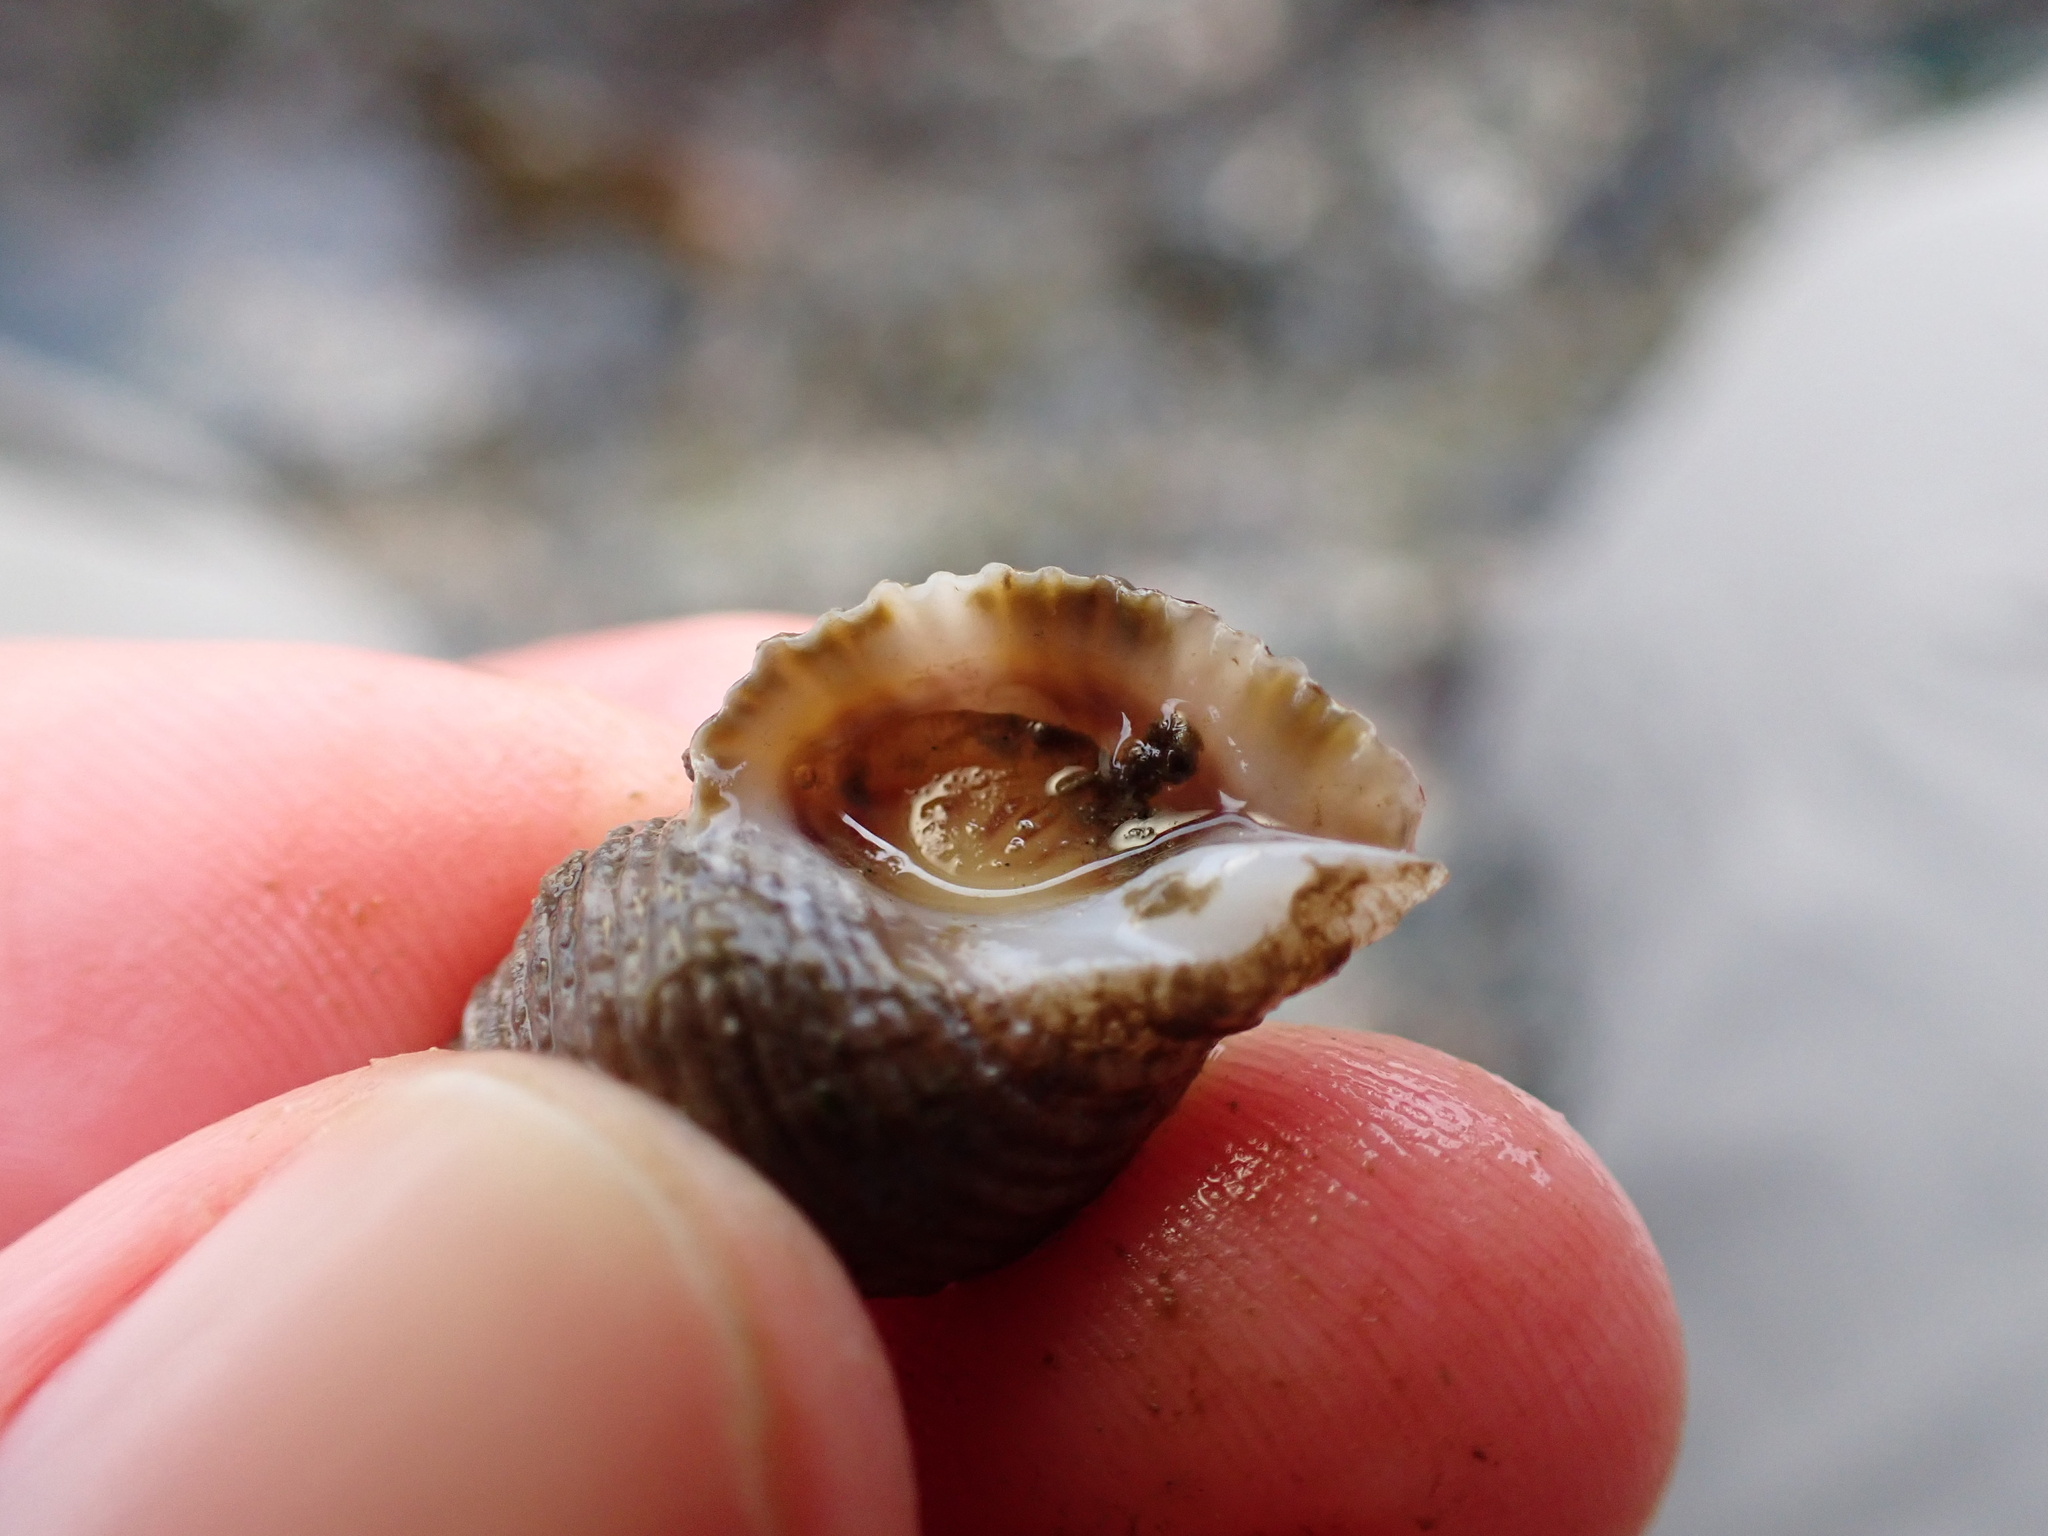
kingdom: Animalia
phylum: Mollusca
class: Gastropoda
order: Neogastropoda
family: Muricidae
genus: Nucella
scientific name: Nucella canaliculata
